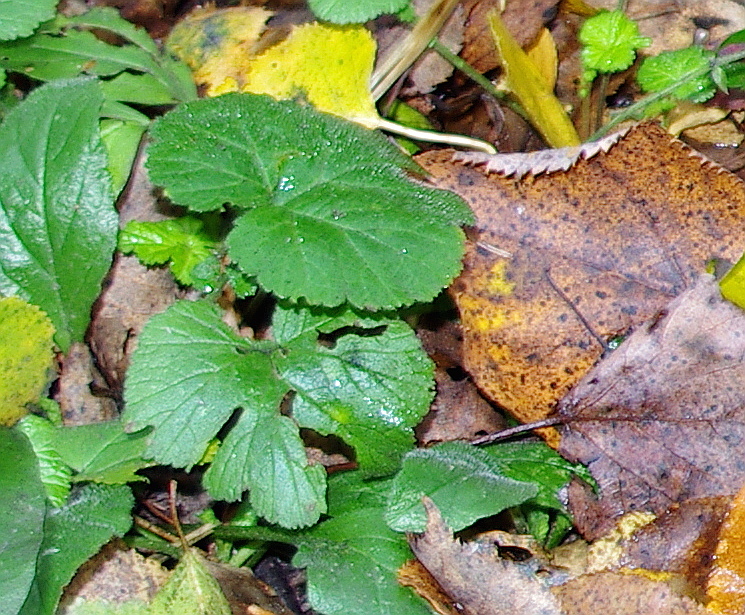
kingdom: Plantae
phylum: Tracheophyta
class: Magnoliopsida
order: Rosales
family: Rosaceae
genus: Geum
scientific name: Geum
